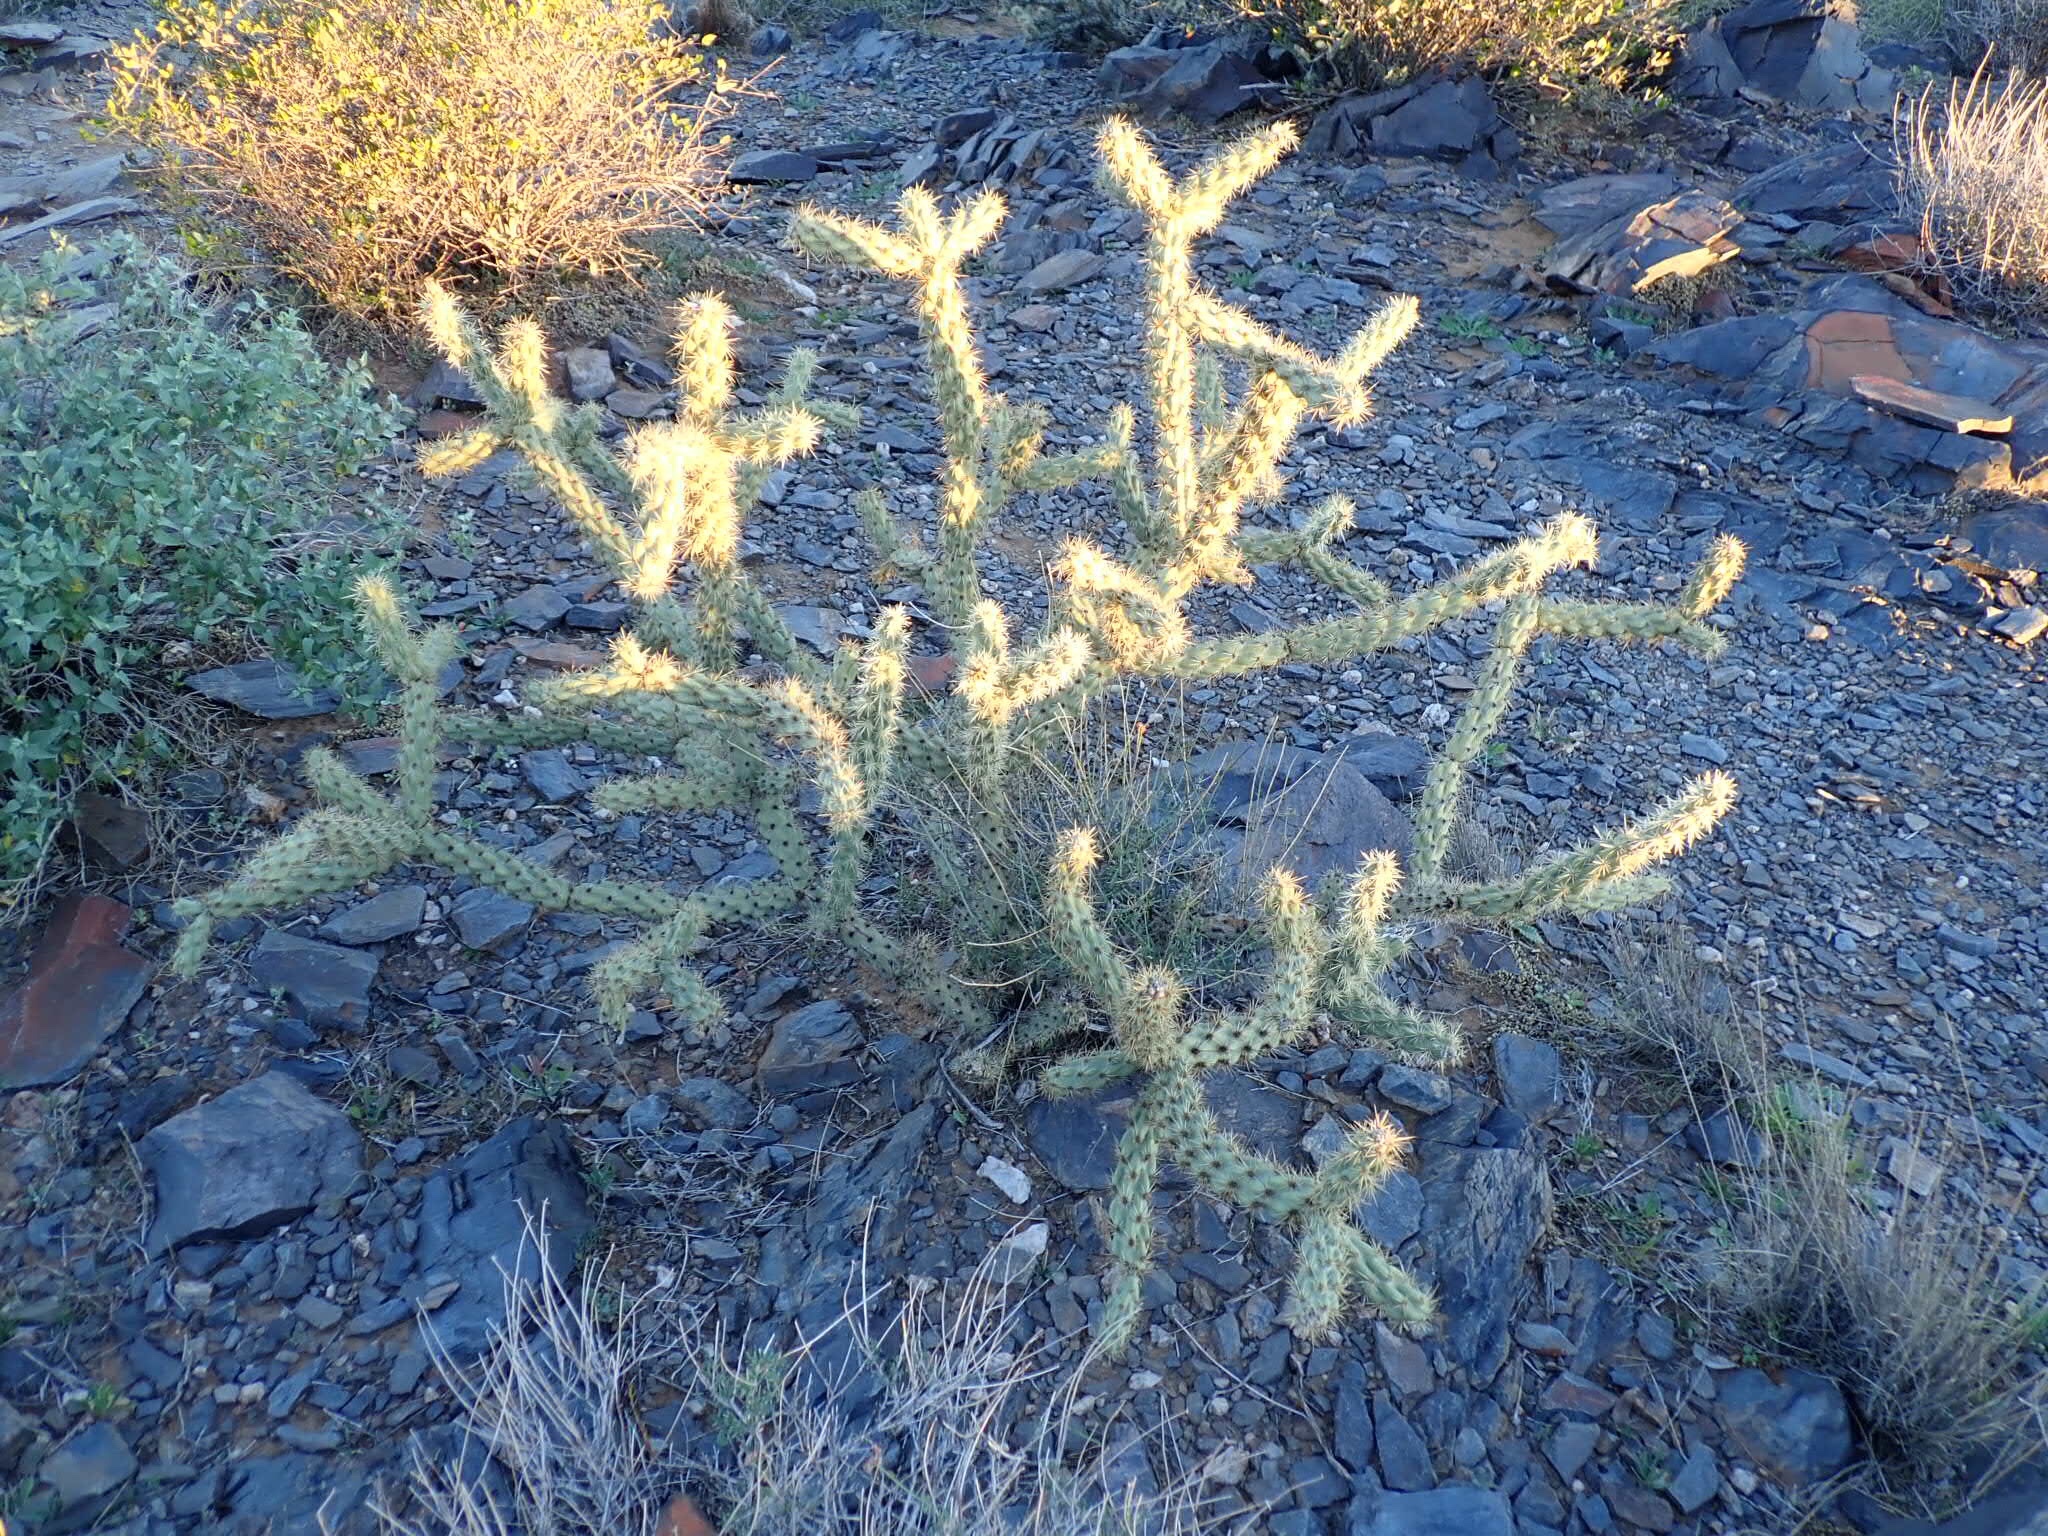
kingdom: Plantae
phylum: Tracheophyta
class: Magnoliopsida
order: Caryophyllales
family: Cactaceae
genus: Cylindropuntia
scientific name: Cylindropuntia acanthocarpa
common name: Buckhorn cholla
